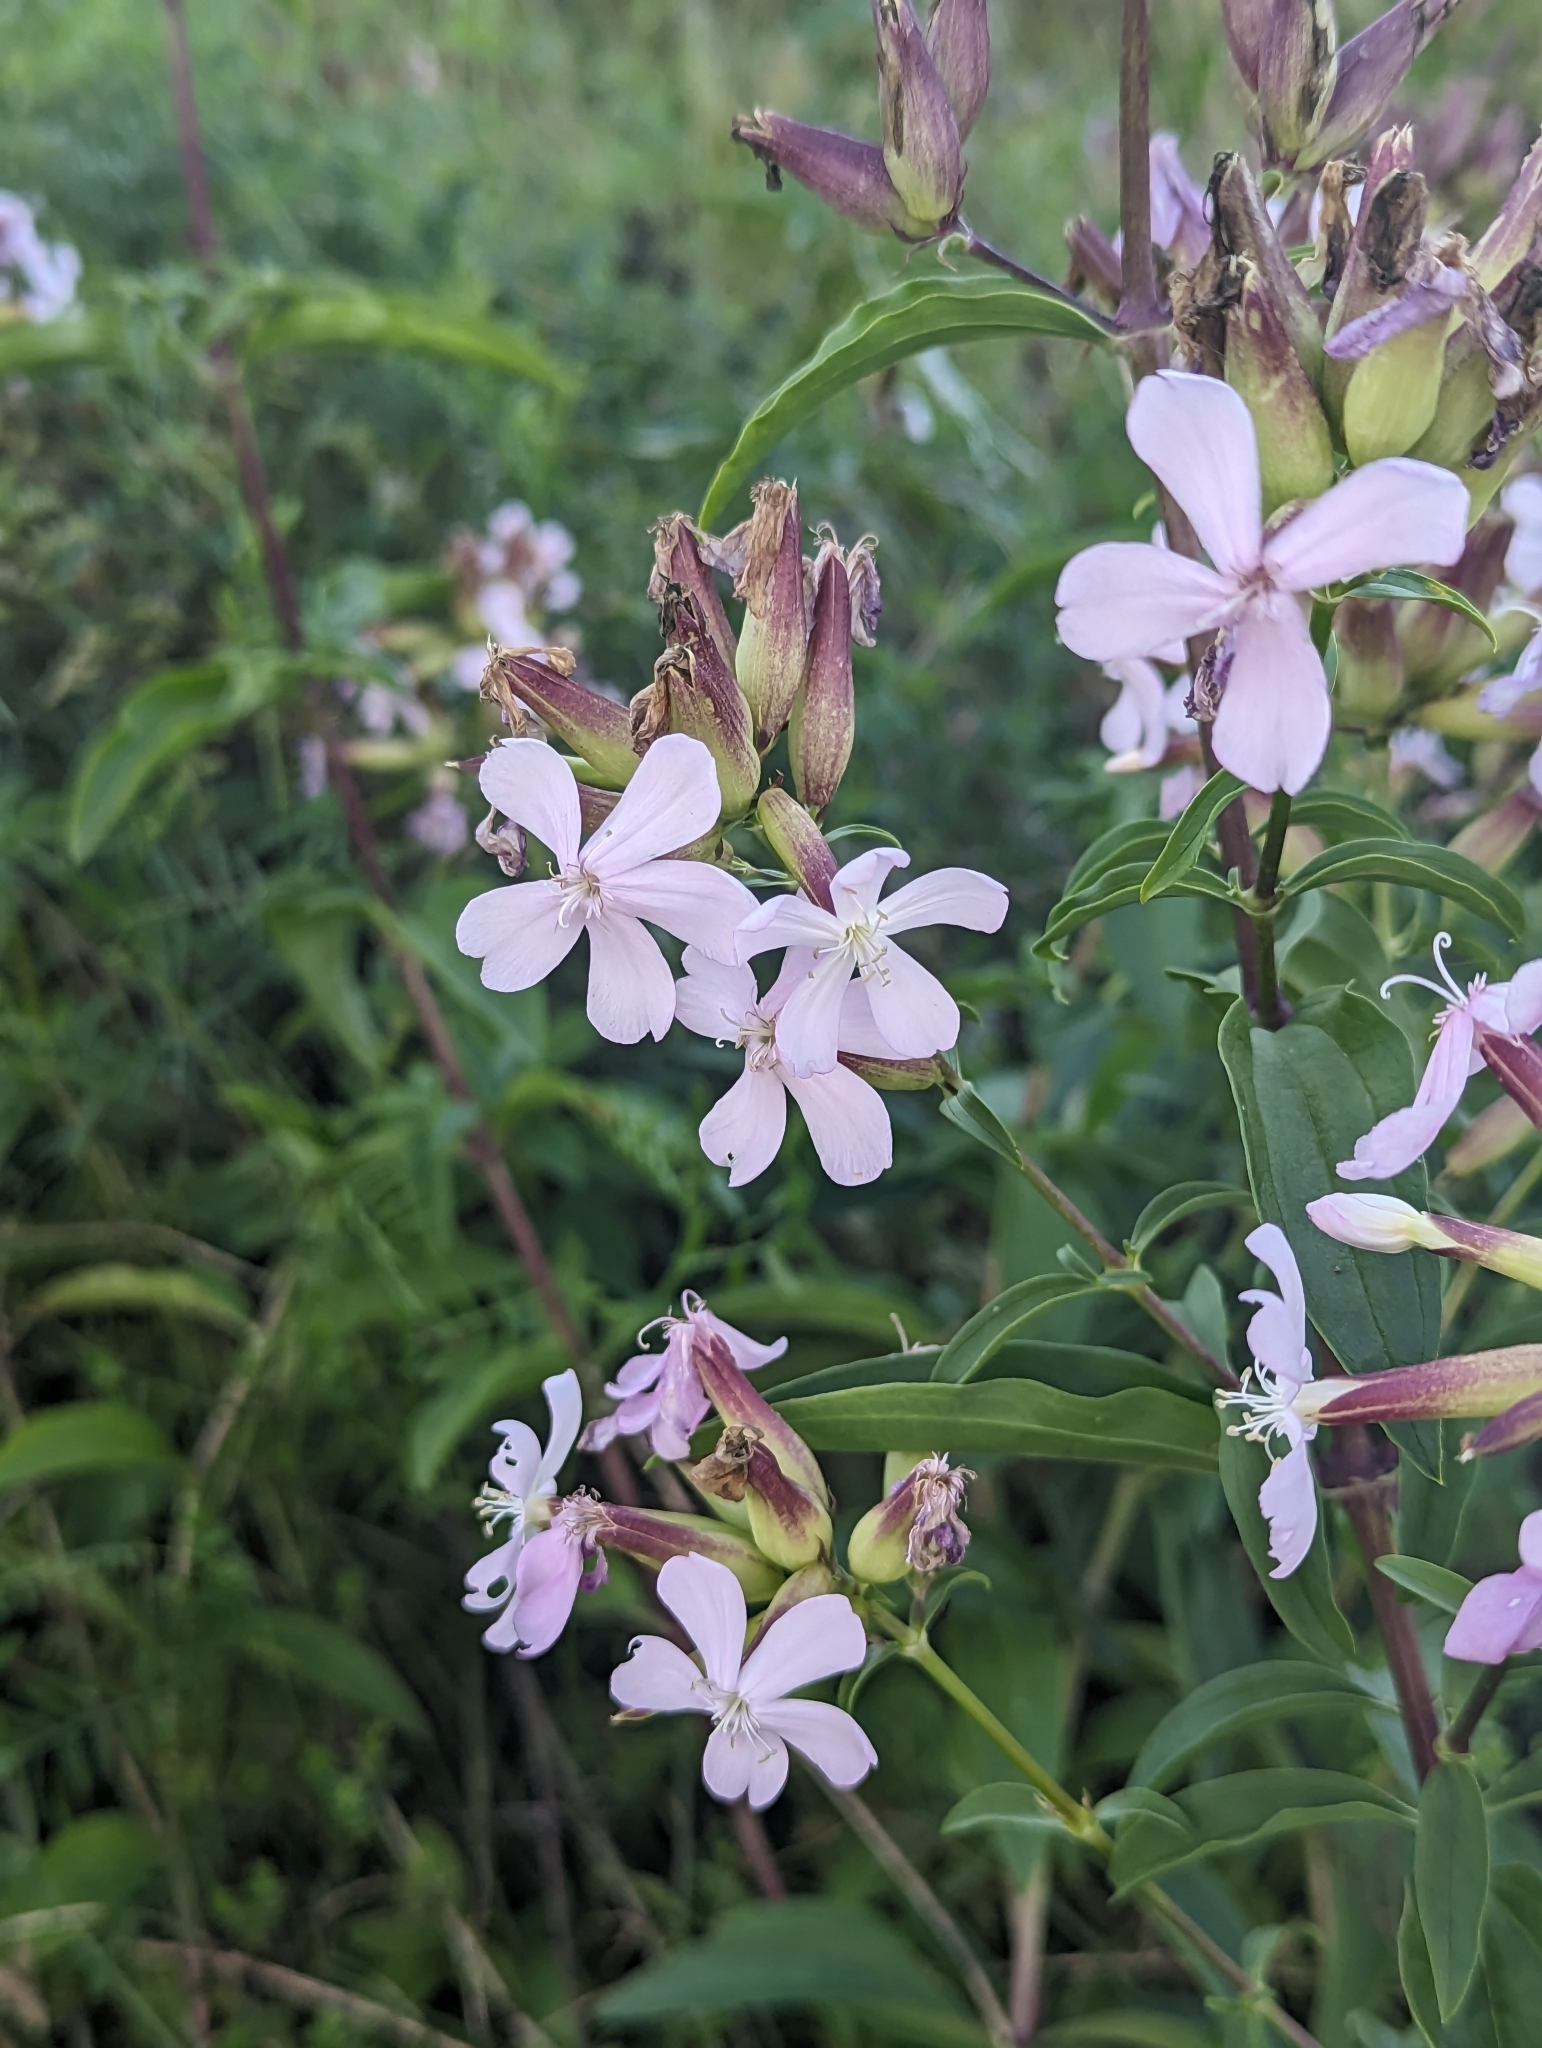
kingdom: Plantae
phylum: Tracheophyta
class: Magnoliopsida
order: Caryophyllales
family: Caryophyllaceae
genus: Saponaria
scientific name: Saponaria officinalis
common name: Soapwort
